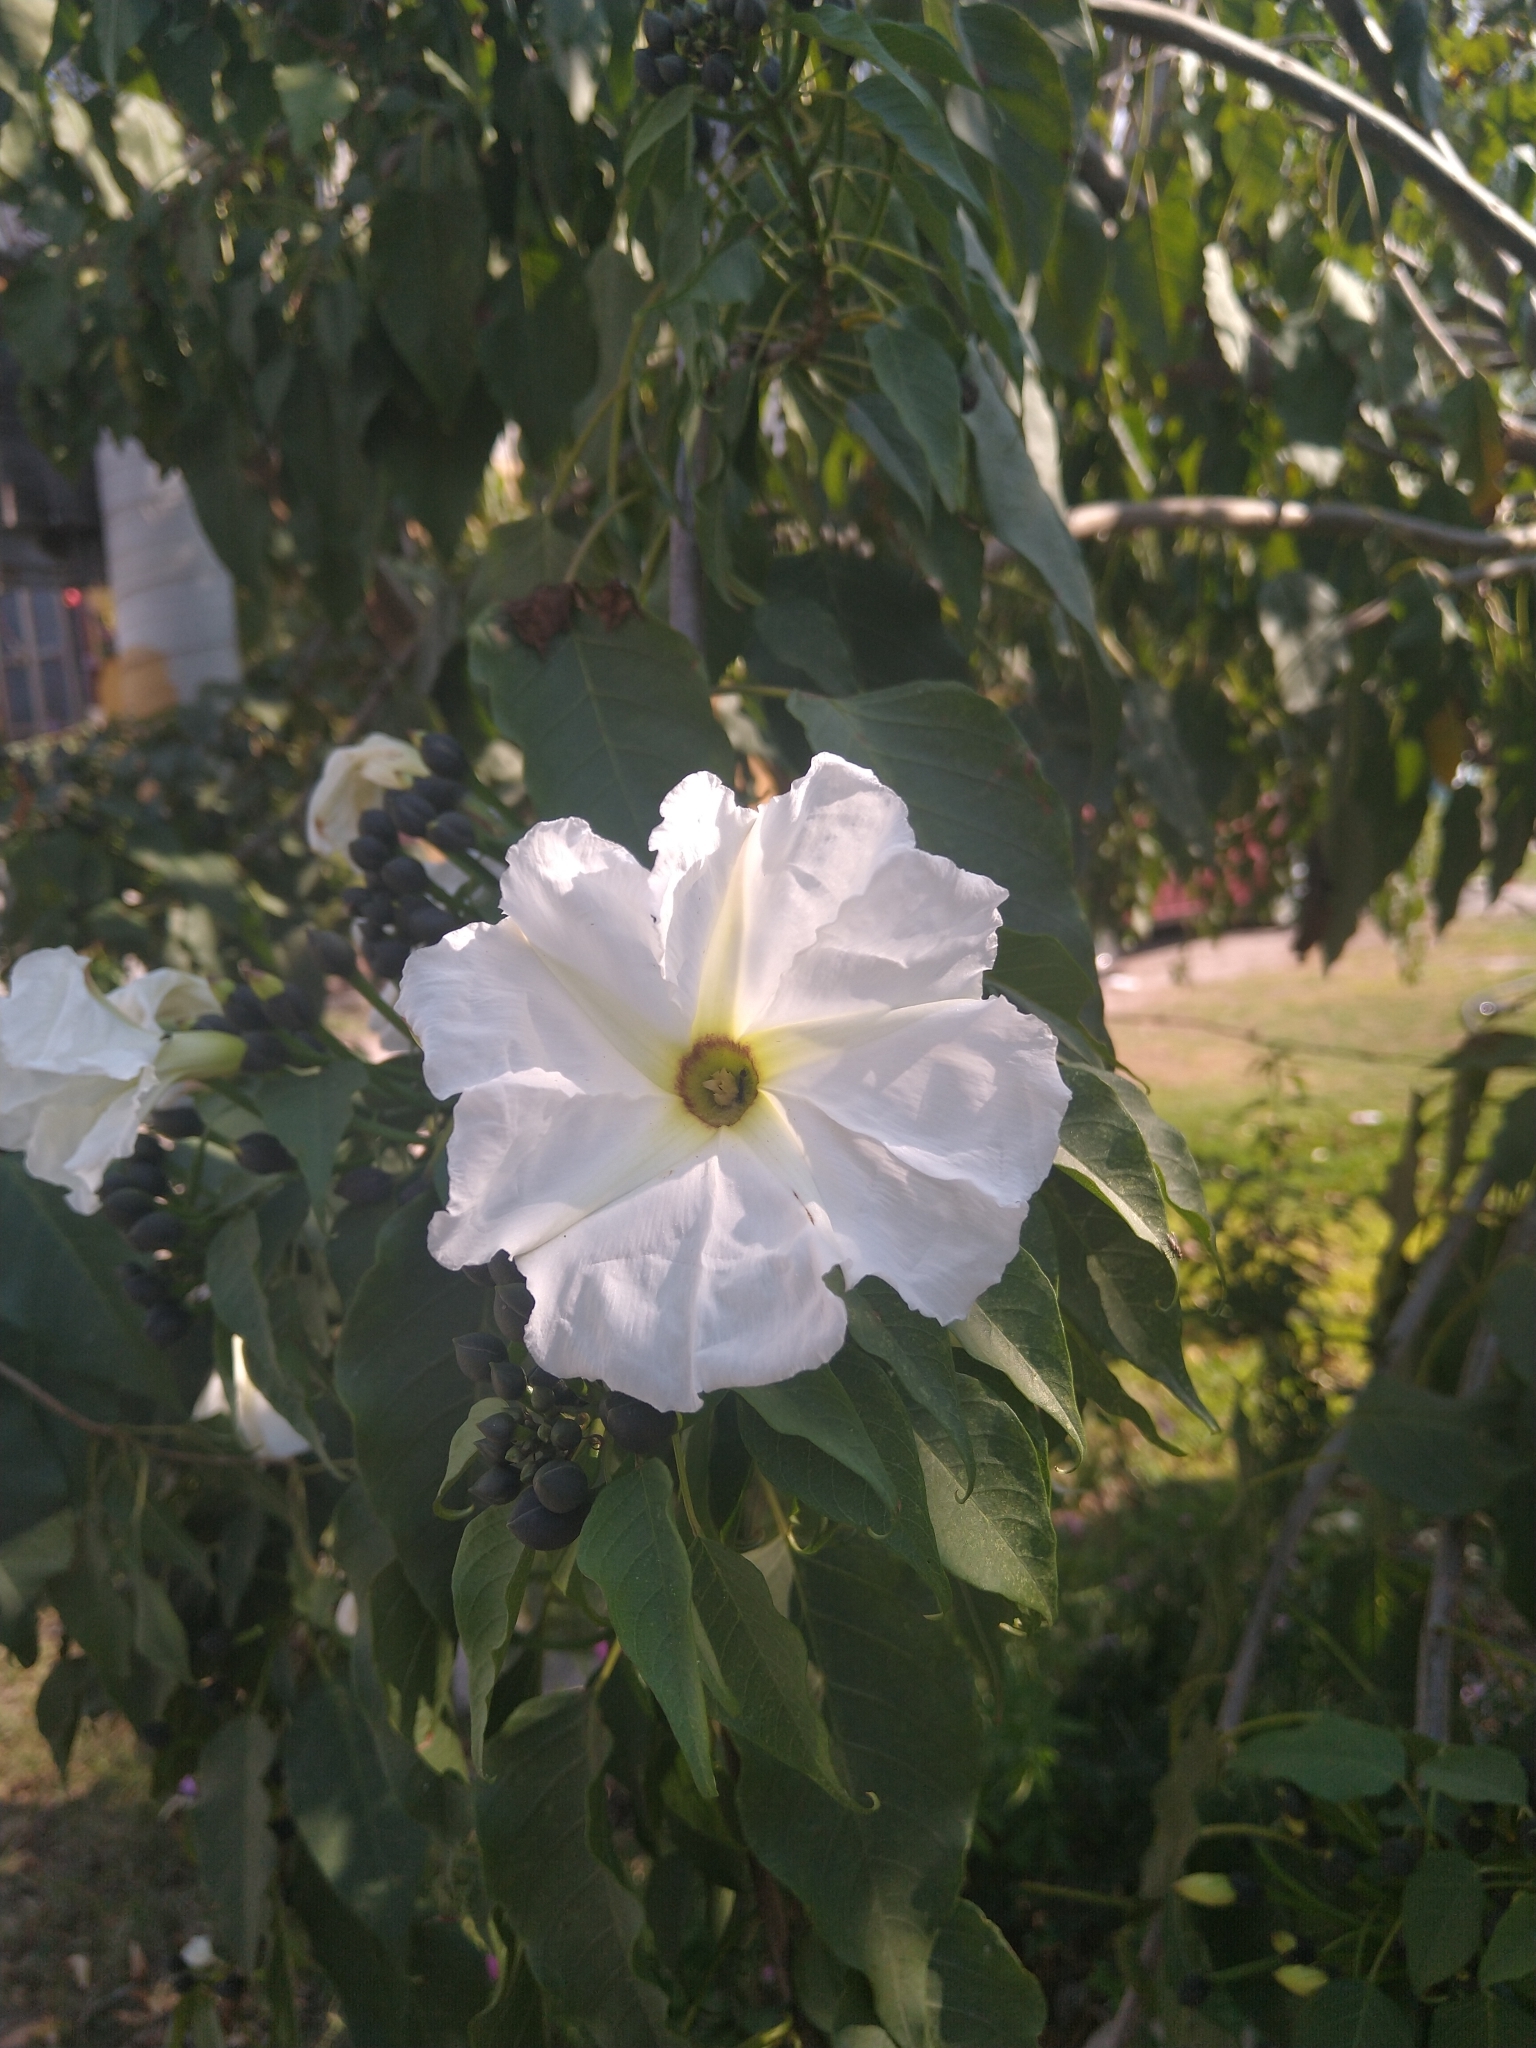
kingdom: Plantae
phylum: Tracheophyta
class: Magnoliopsida
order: Solanales
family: Convolvulaceae
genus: Ipomoea
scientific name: Ipomoea pauciflora
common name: Tree morningglory
